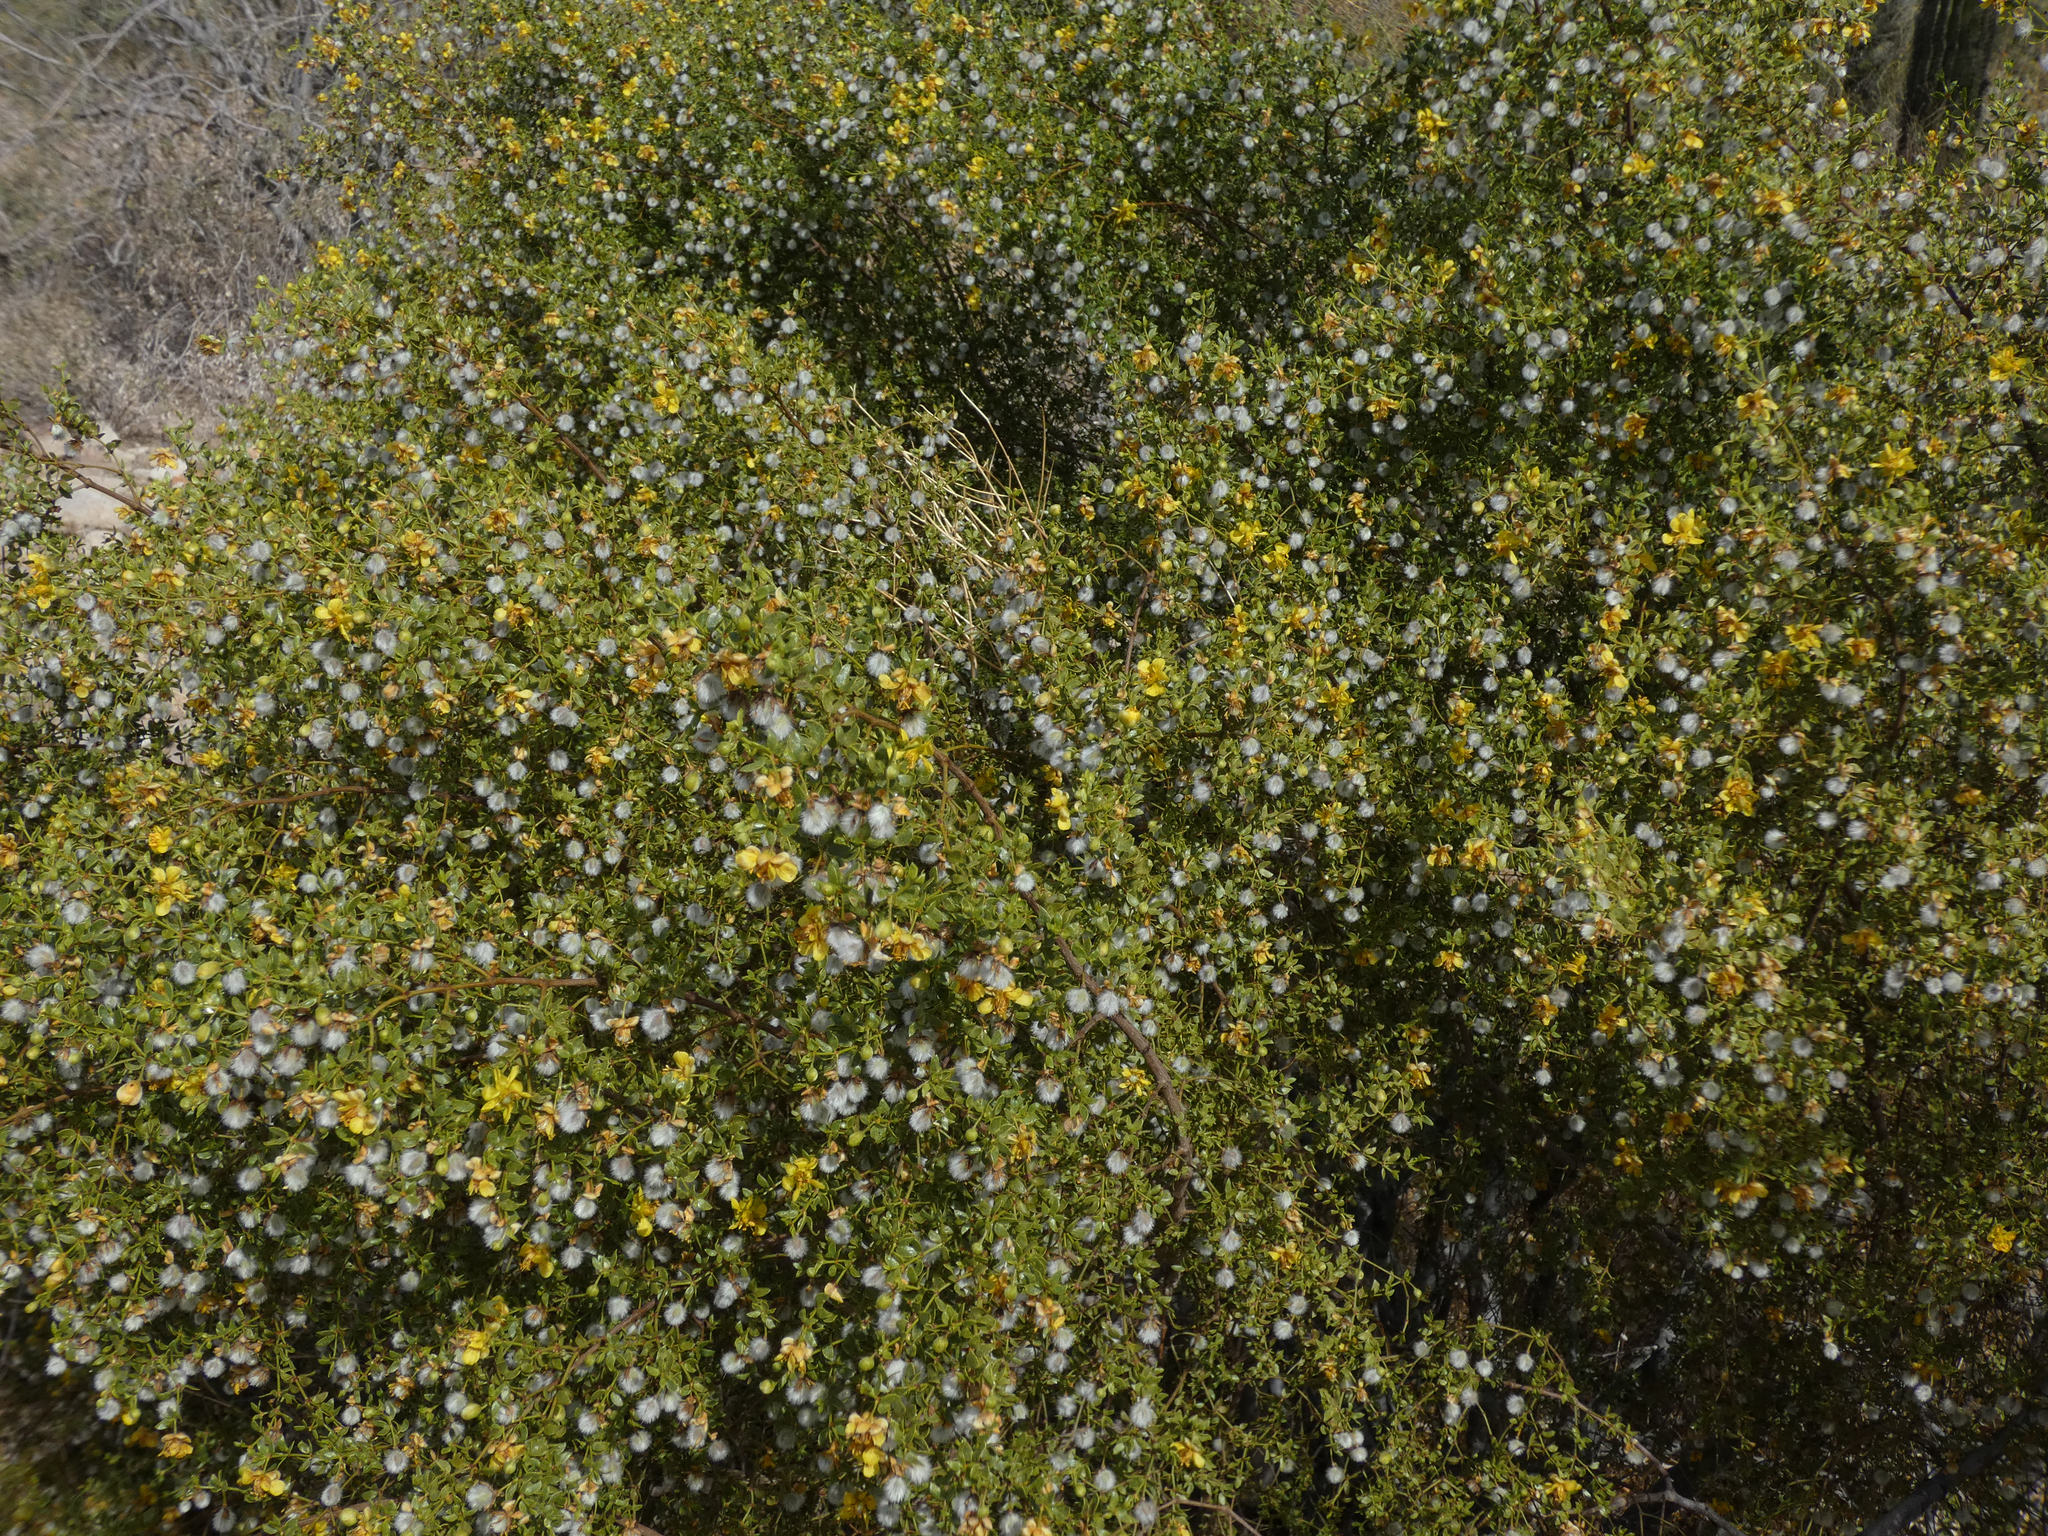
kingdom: Plantae
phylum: Tracheophyta
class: Magnoliopsida
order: Zygophyllales
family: Zygophyllaceae
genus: Larrea
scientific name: Larrea tridentata
